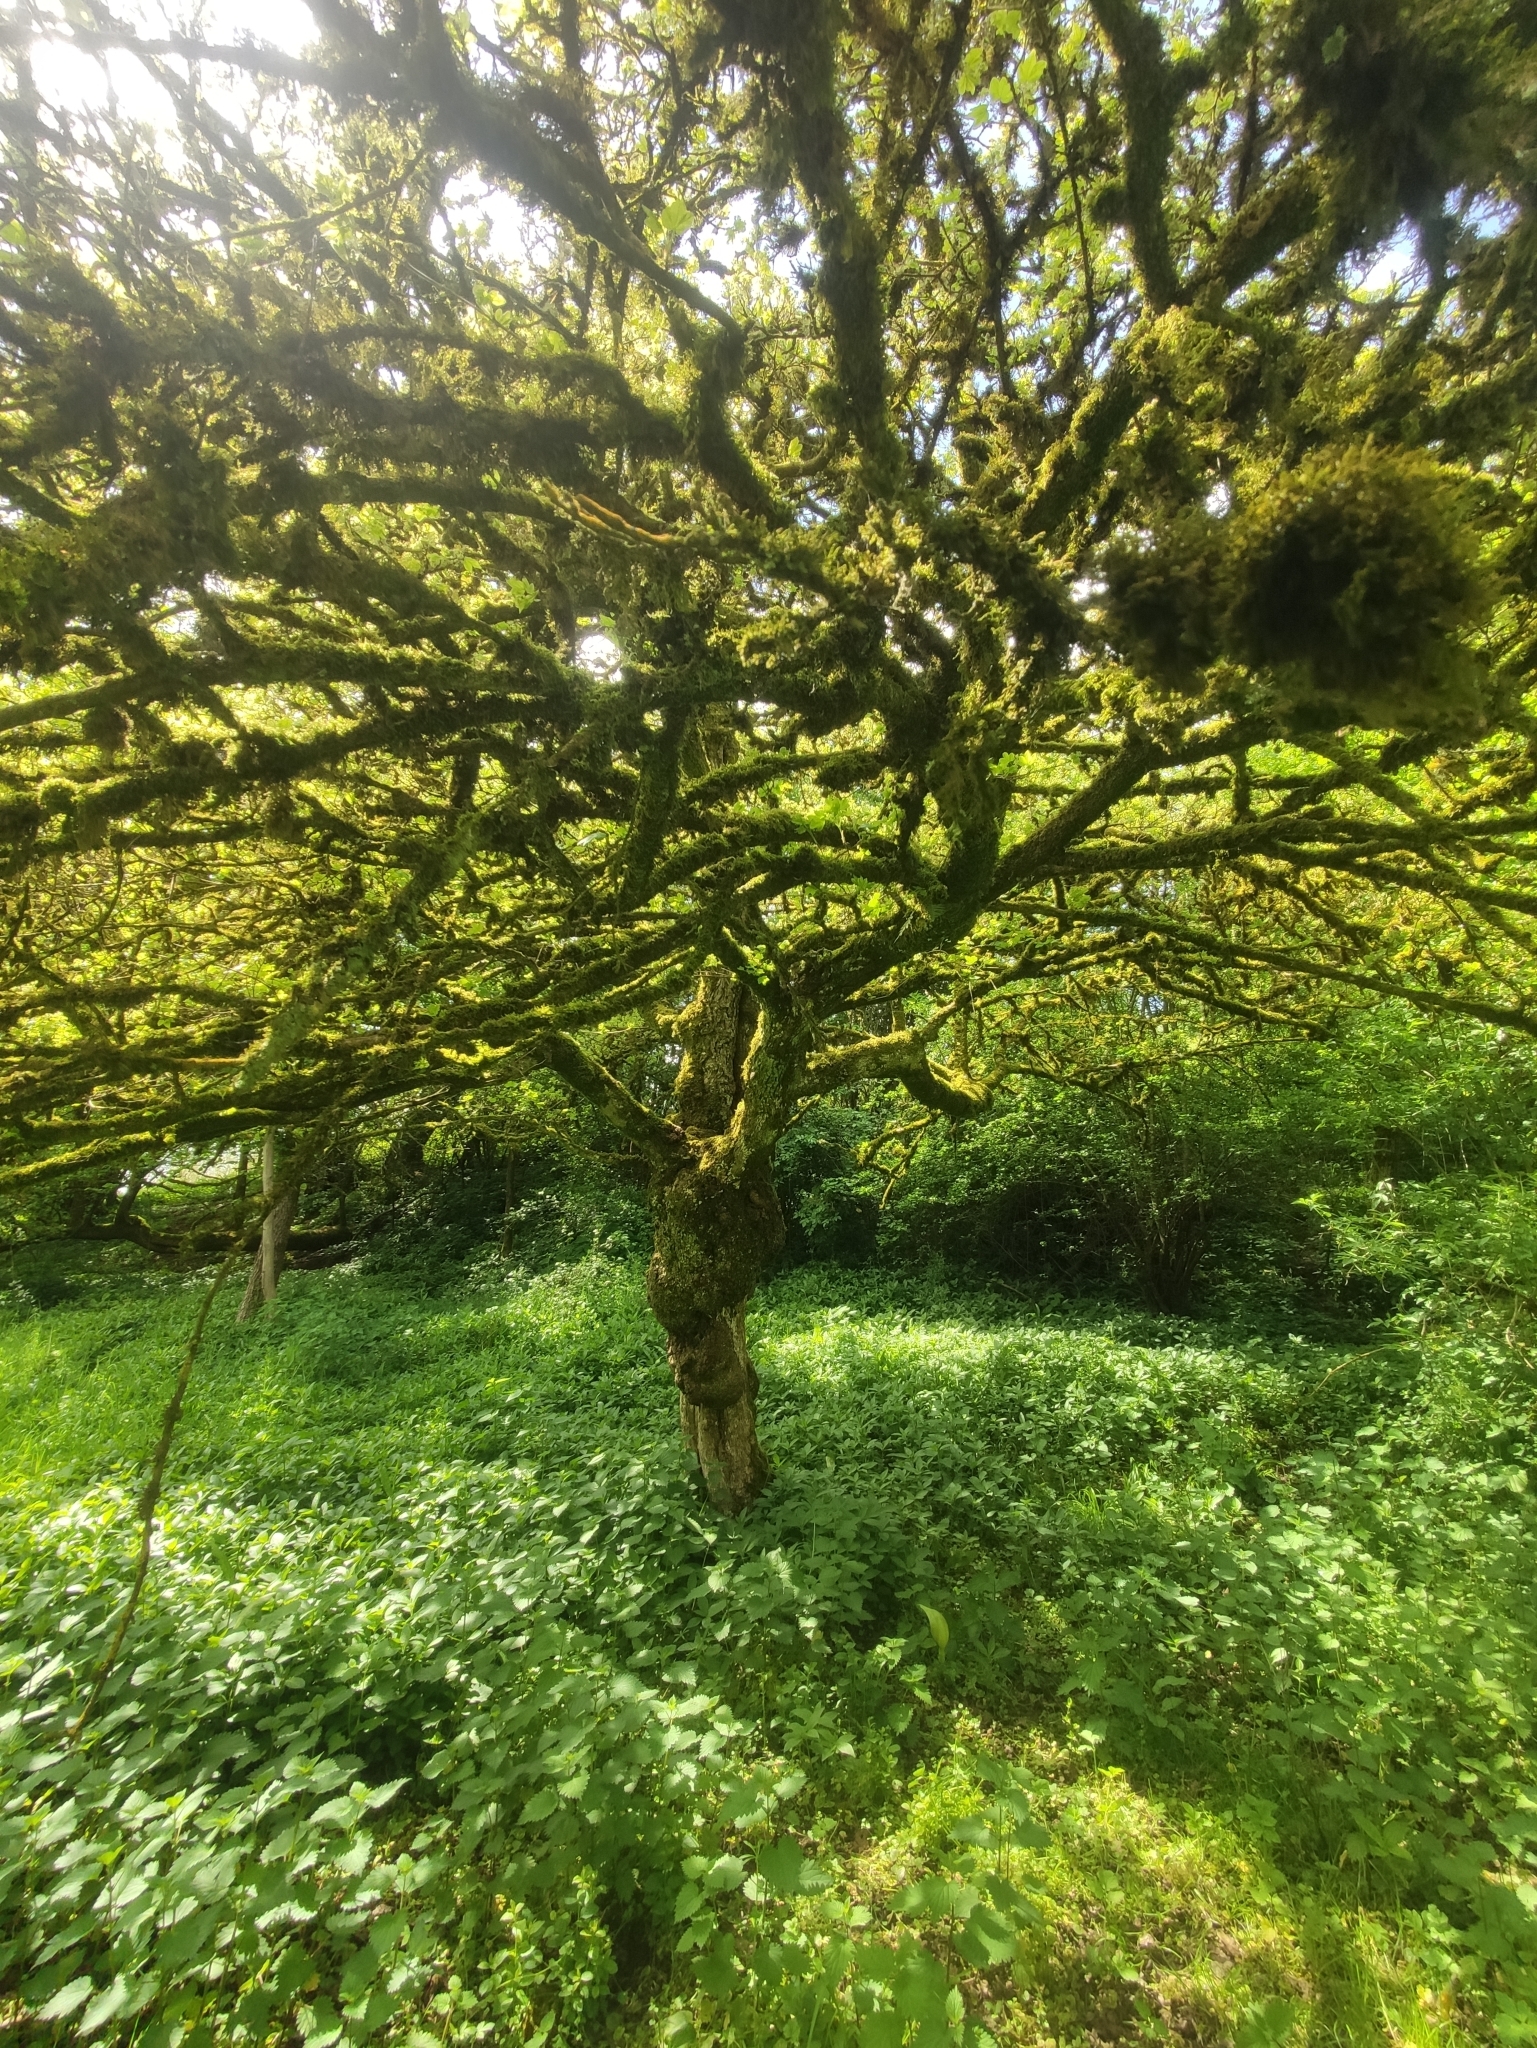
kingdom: Plantae
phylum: Tracheophyta
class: Magnoliopsida
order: Sapindales
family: Sapindaceae
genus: Acer
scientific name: Acer campestre
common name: Field maple
